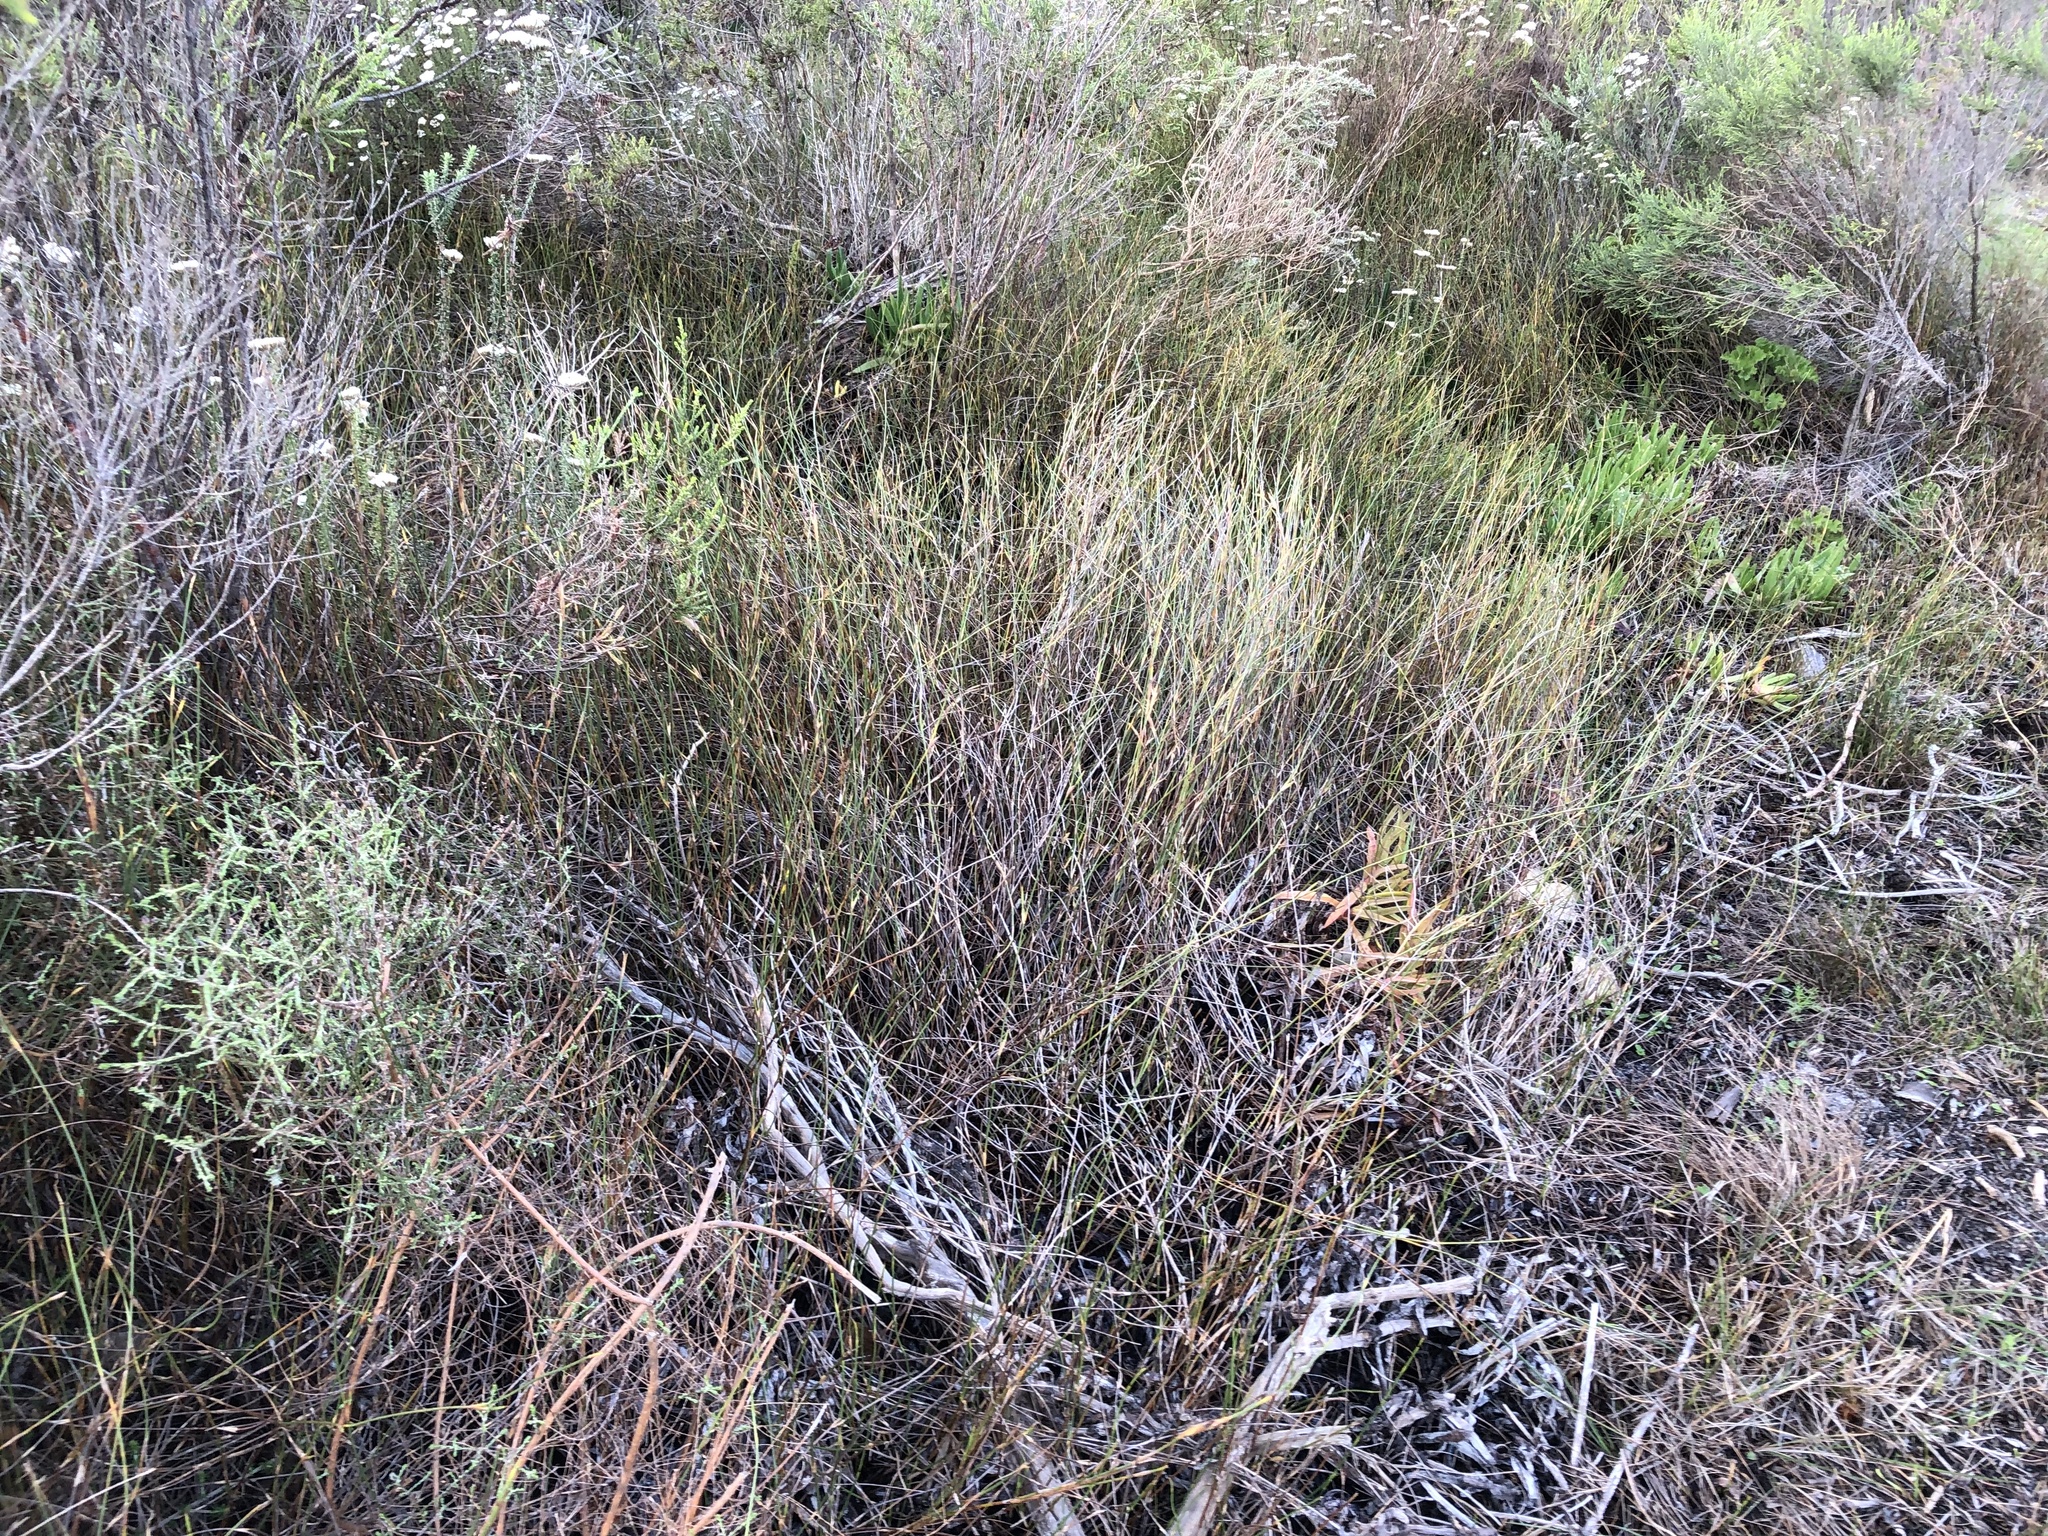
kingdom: Plantae
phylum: Tracheophyta
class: Liliopsida
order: Poales
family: Restionaceae
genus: Willdenowia
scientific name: Willdenowia sulcata
